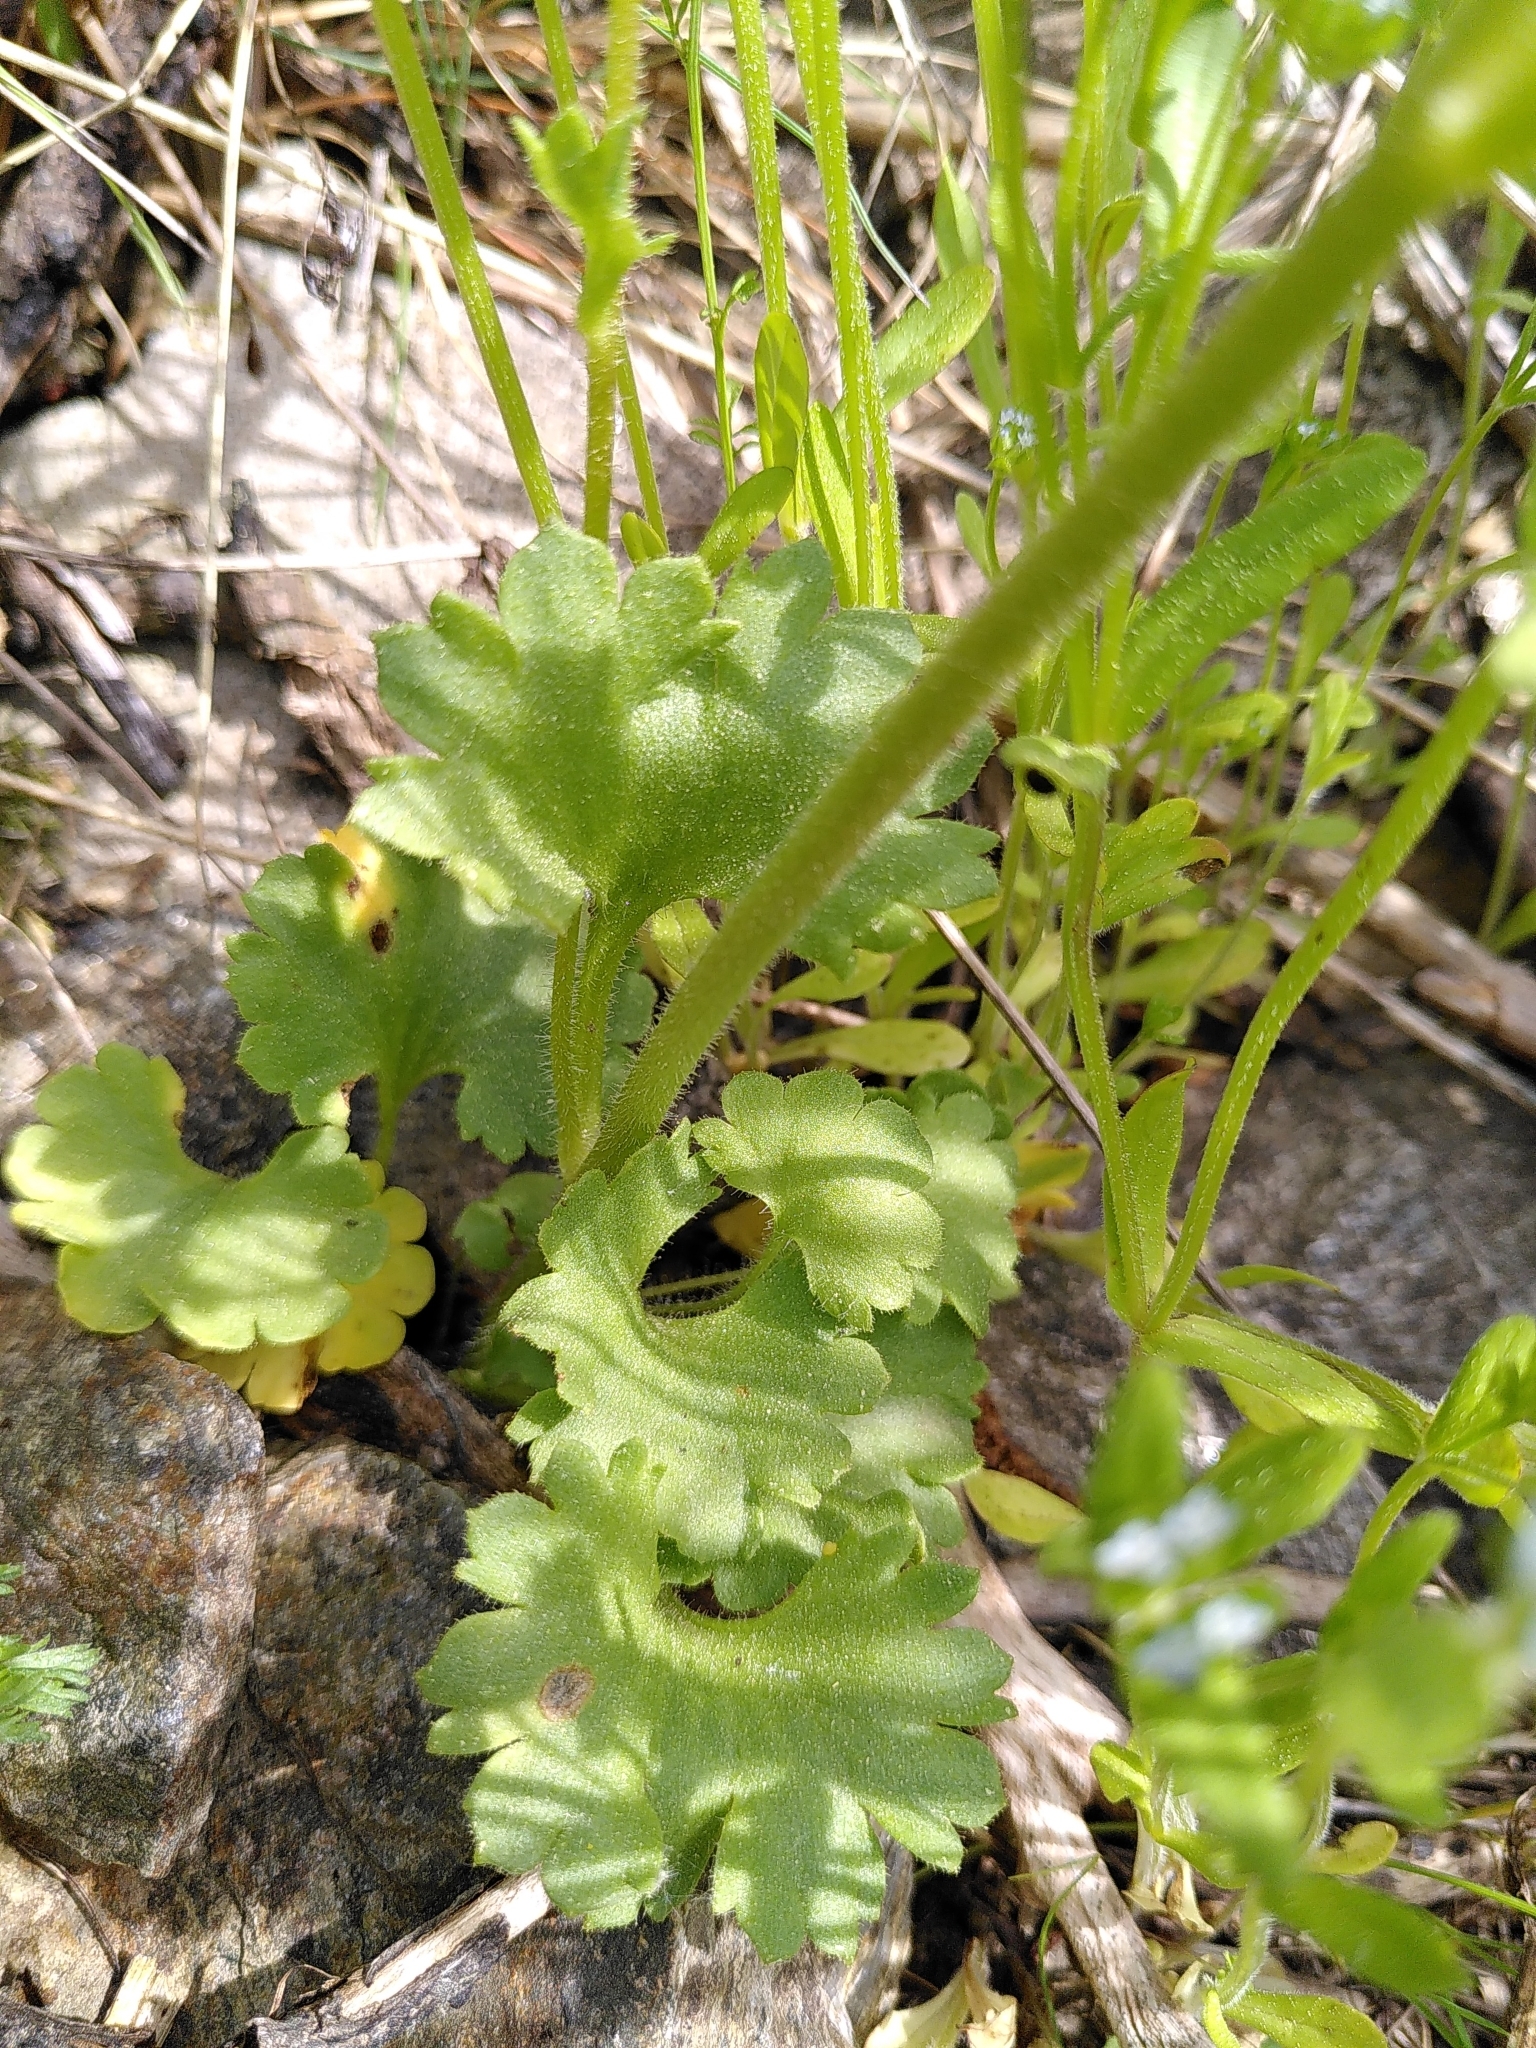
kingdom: Plantae
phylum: Tracheophyta
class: Magnoliopsida
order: Saxifragales
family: Saxifragaceae
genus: Saxifraga
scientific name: Saxifraga granulata
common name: Meadow saxifrage
